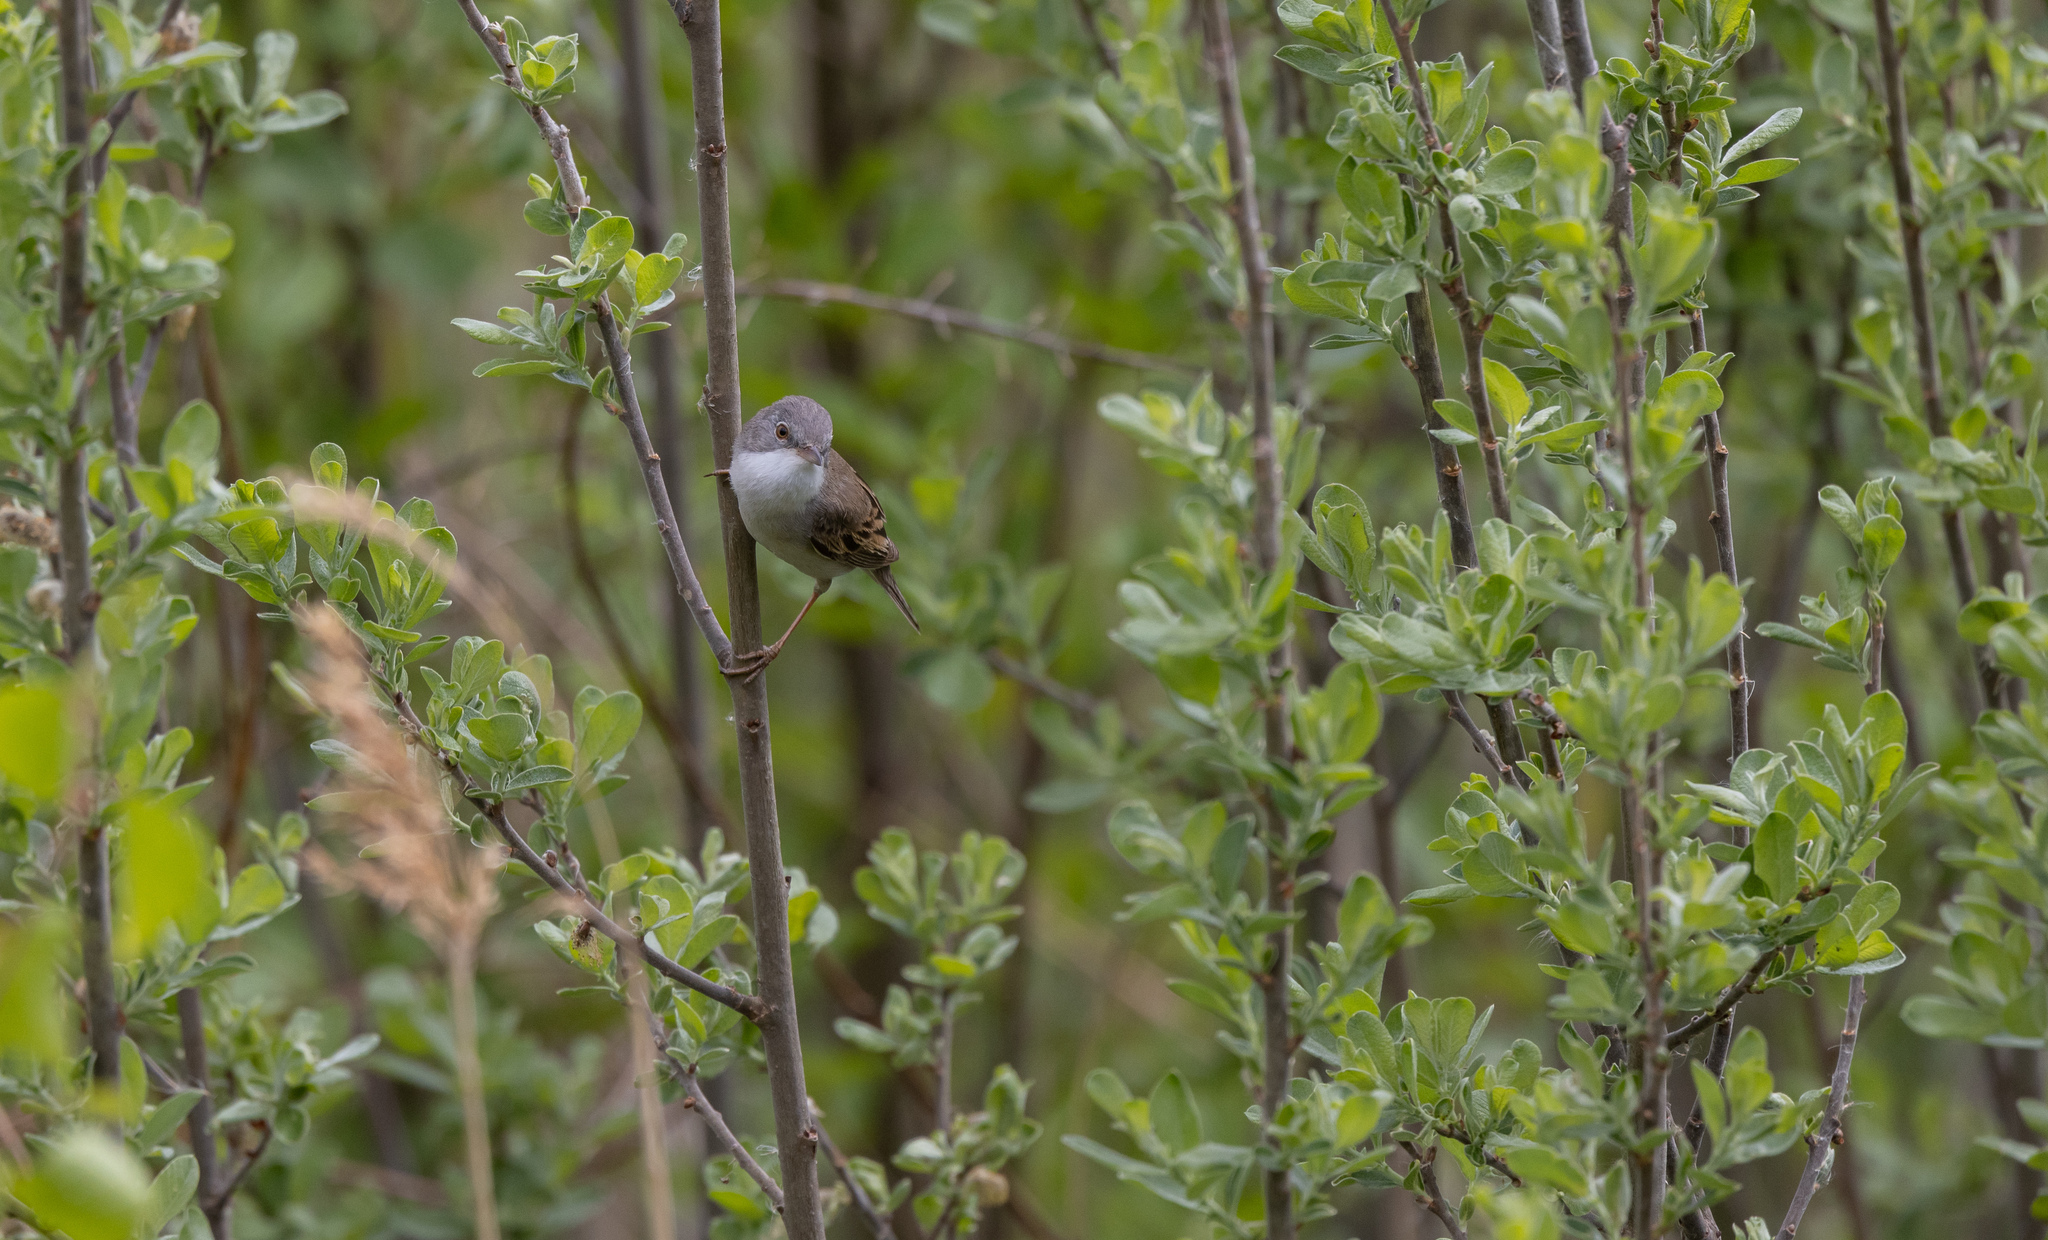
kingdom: Animalia
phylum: Chordata
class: Aves
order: Passeriformes
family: Sylviidae
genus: Sylvia
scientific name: Sylvia communis
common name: Common whitethroat
